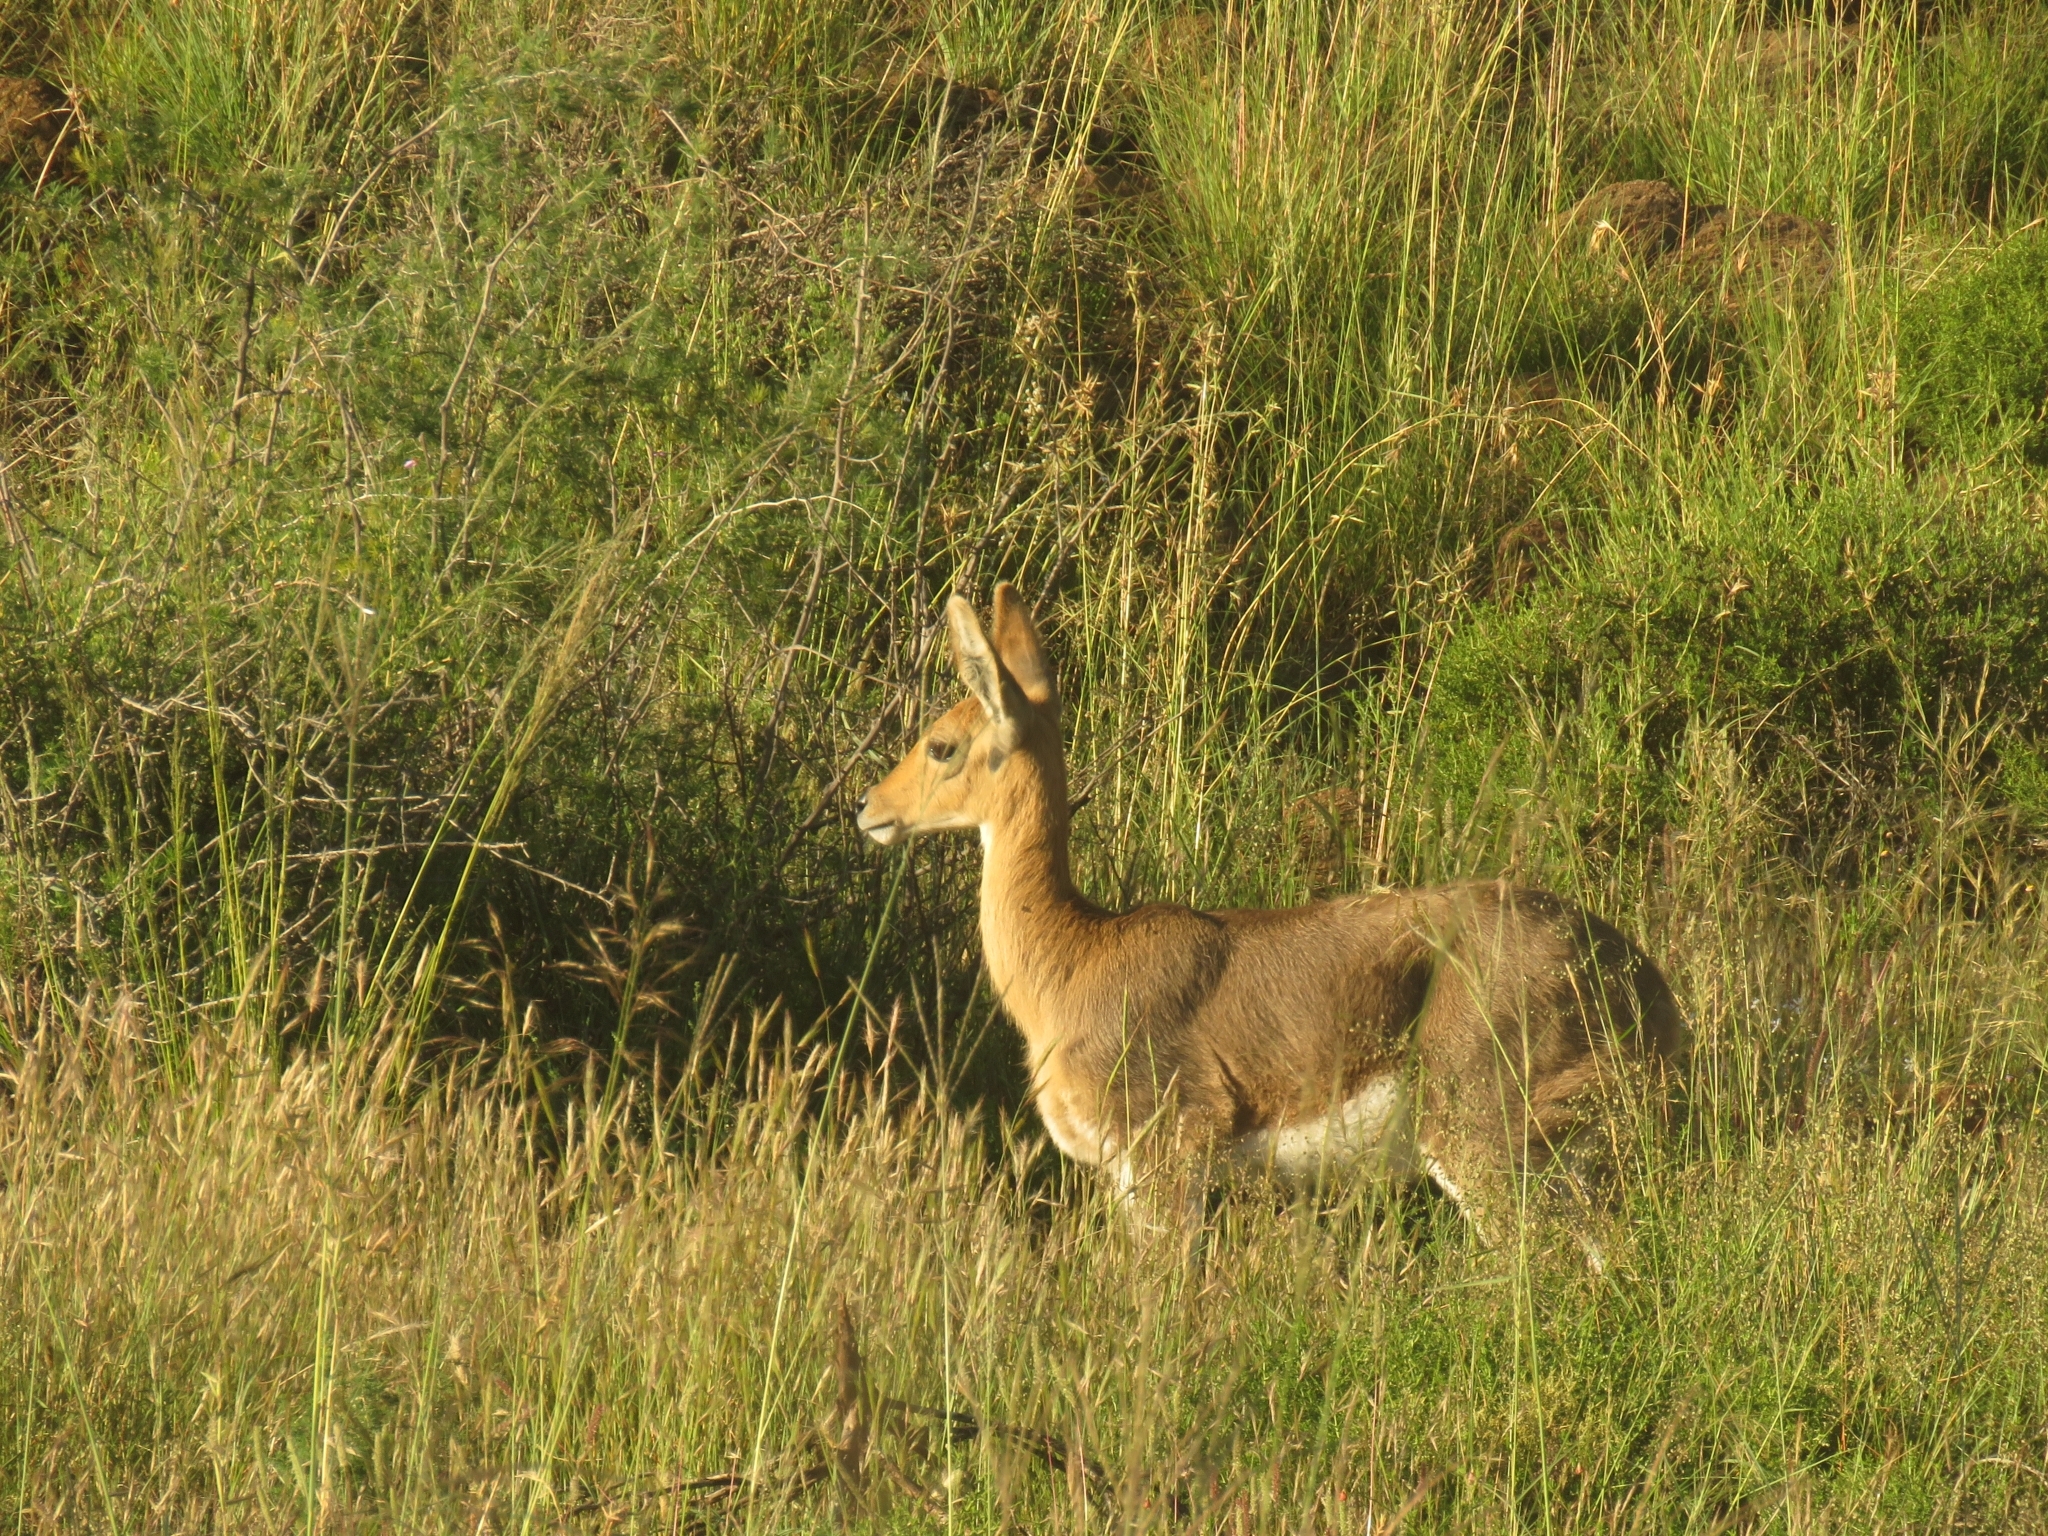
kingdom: Animalia
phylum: Chordata
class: Mammalia
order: Artiodactyla
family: Bovidae
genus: Redunca
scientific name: Redunca fulvorufula
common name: Mountain reedbuck
